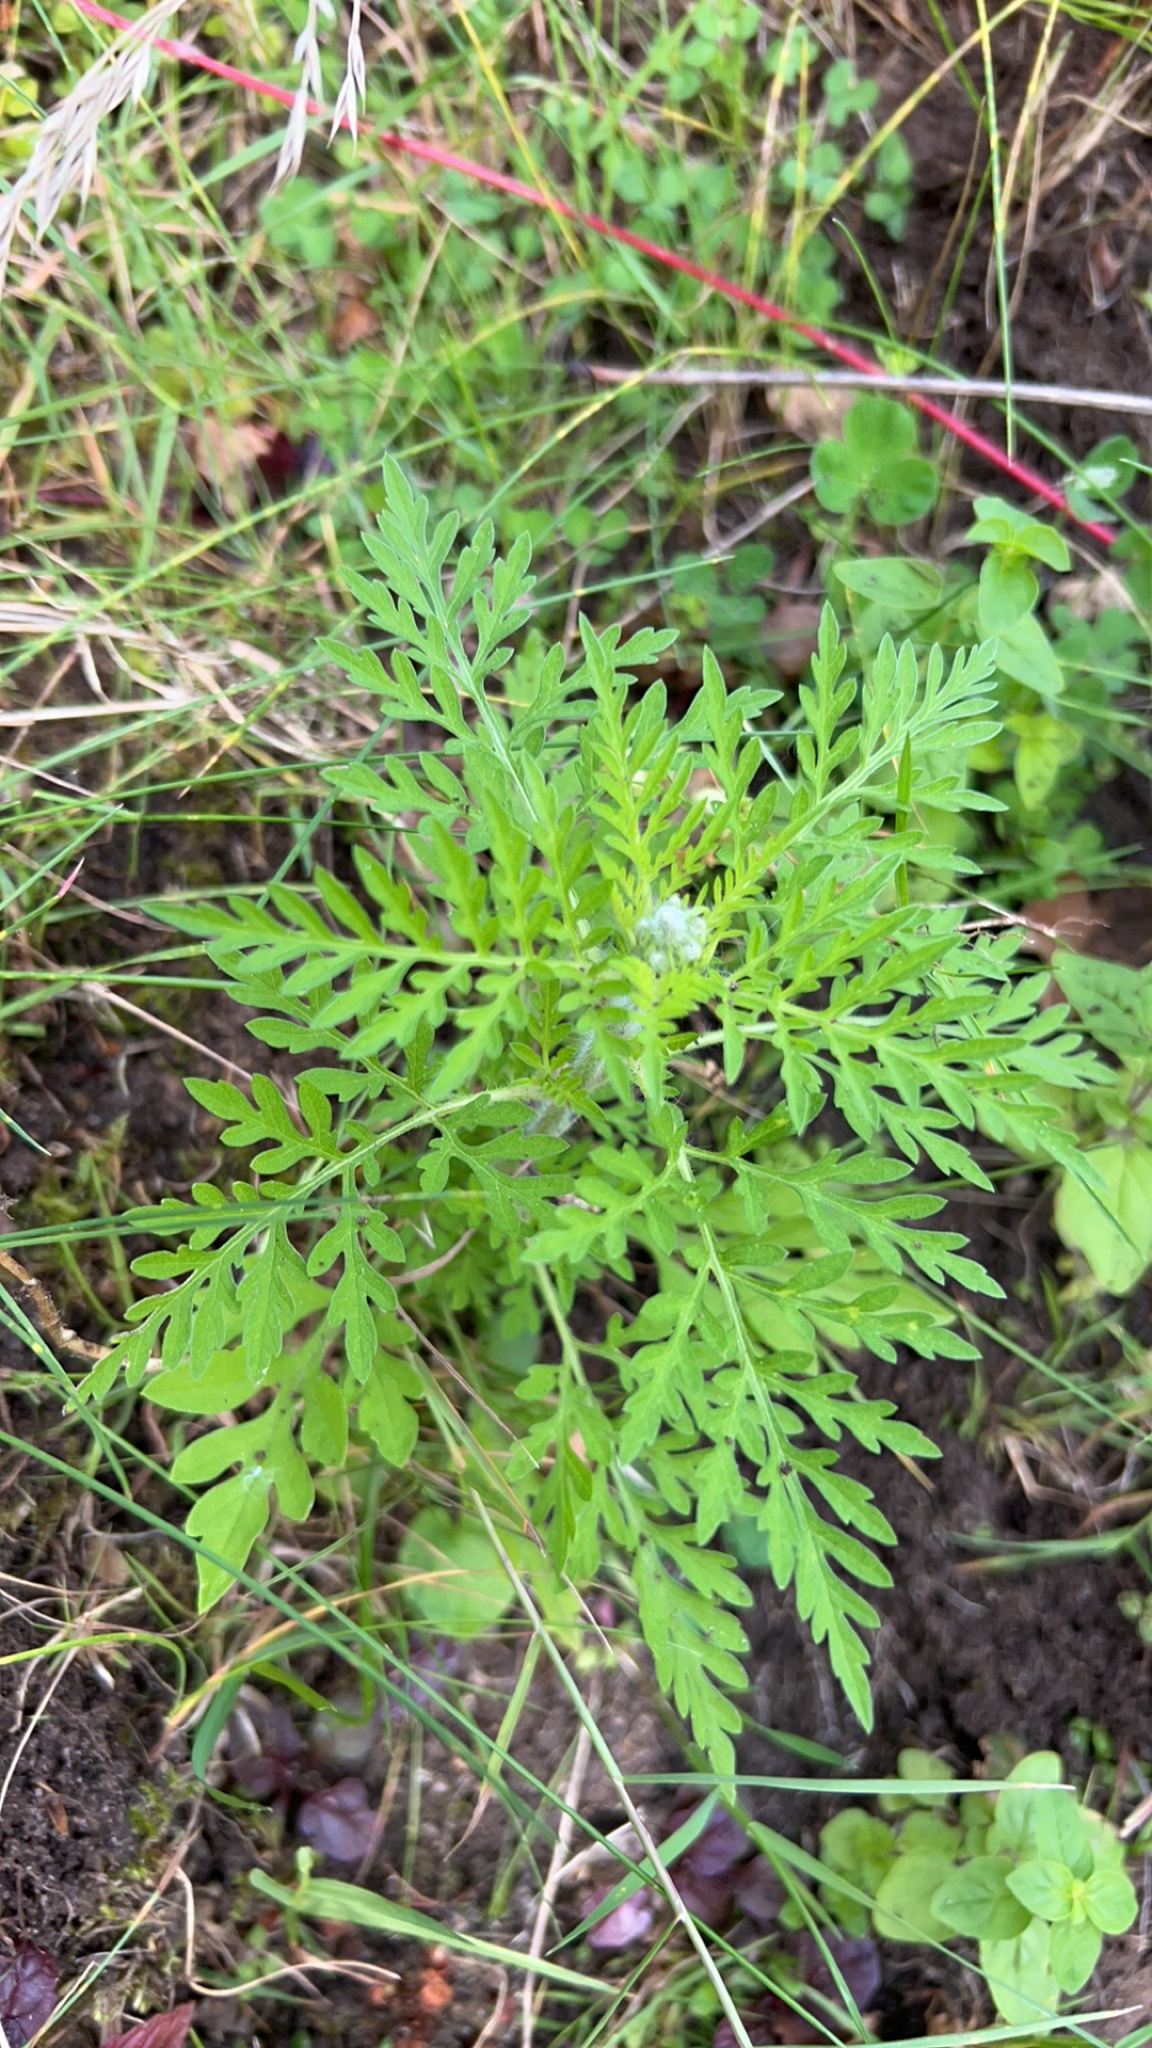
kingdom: Plantae
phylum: Tracheophyta
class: Magnoliopsida
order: Asterales
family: Asteraceae
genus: Ambrosia
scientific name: Ambrosia artemisiifolia
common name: Annual ragweed
